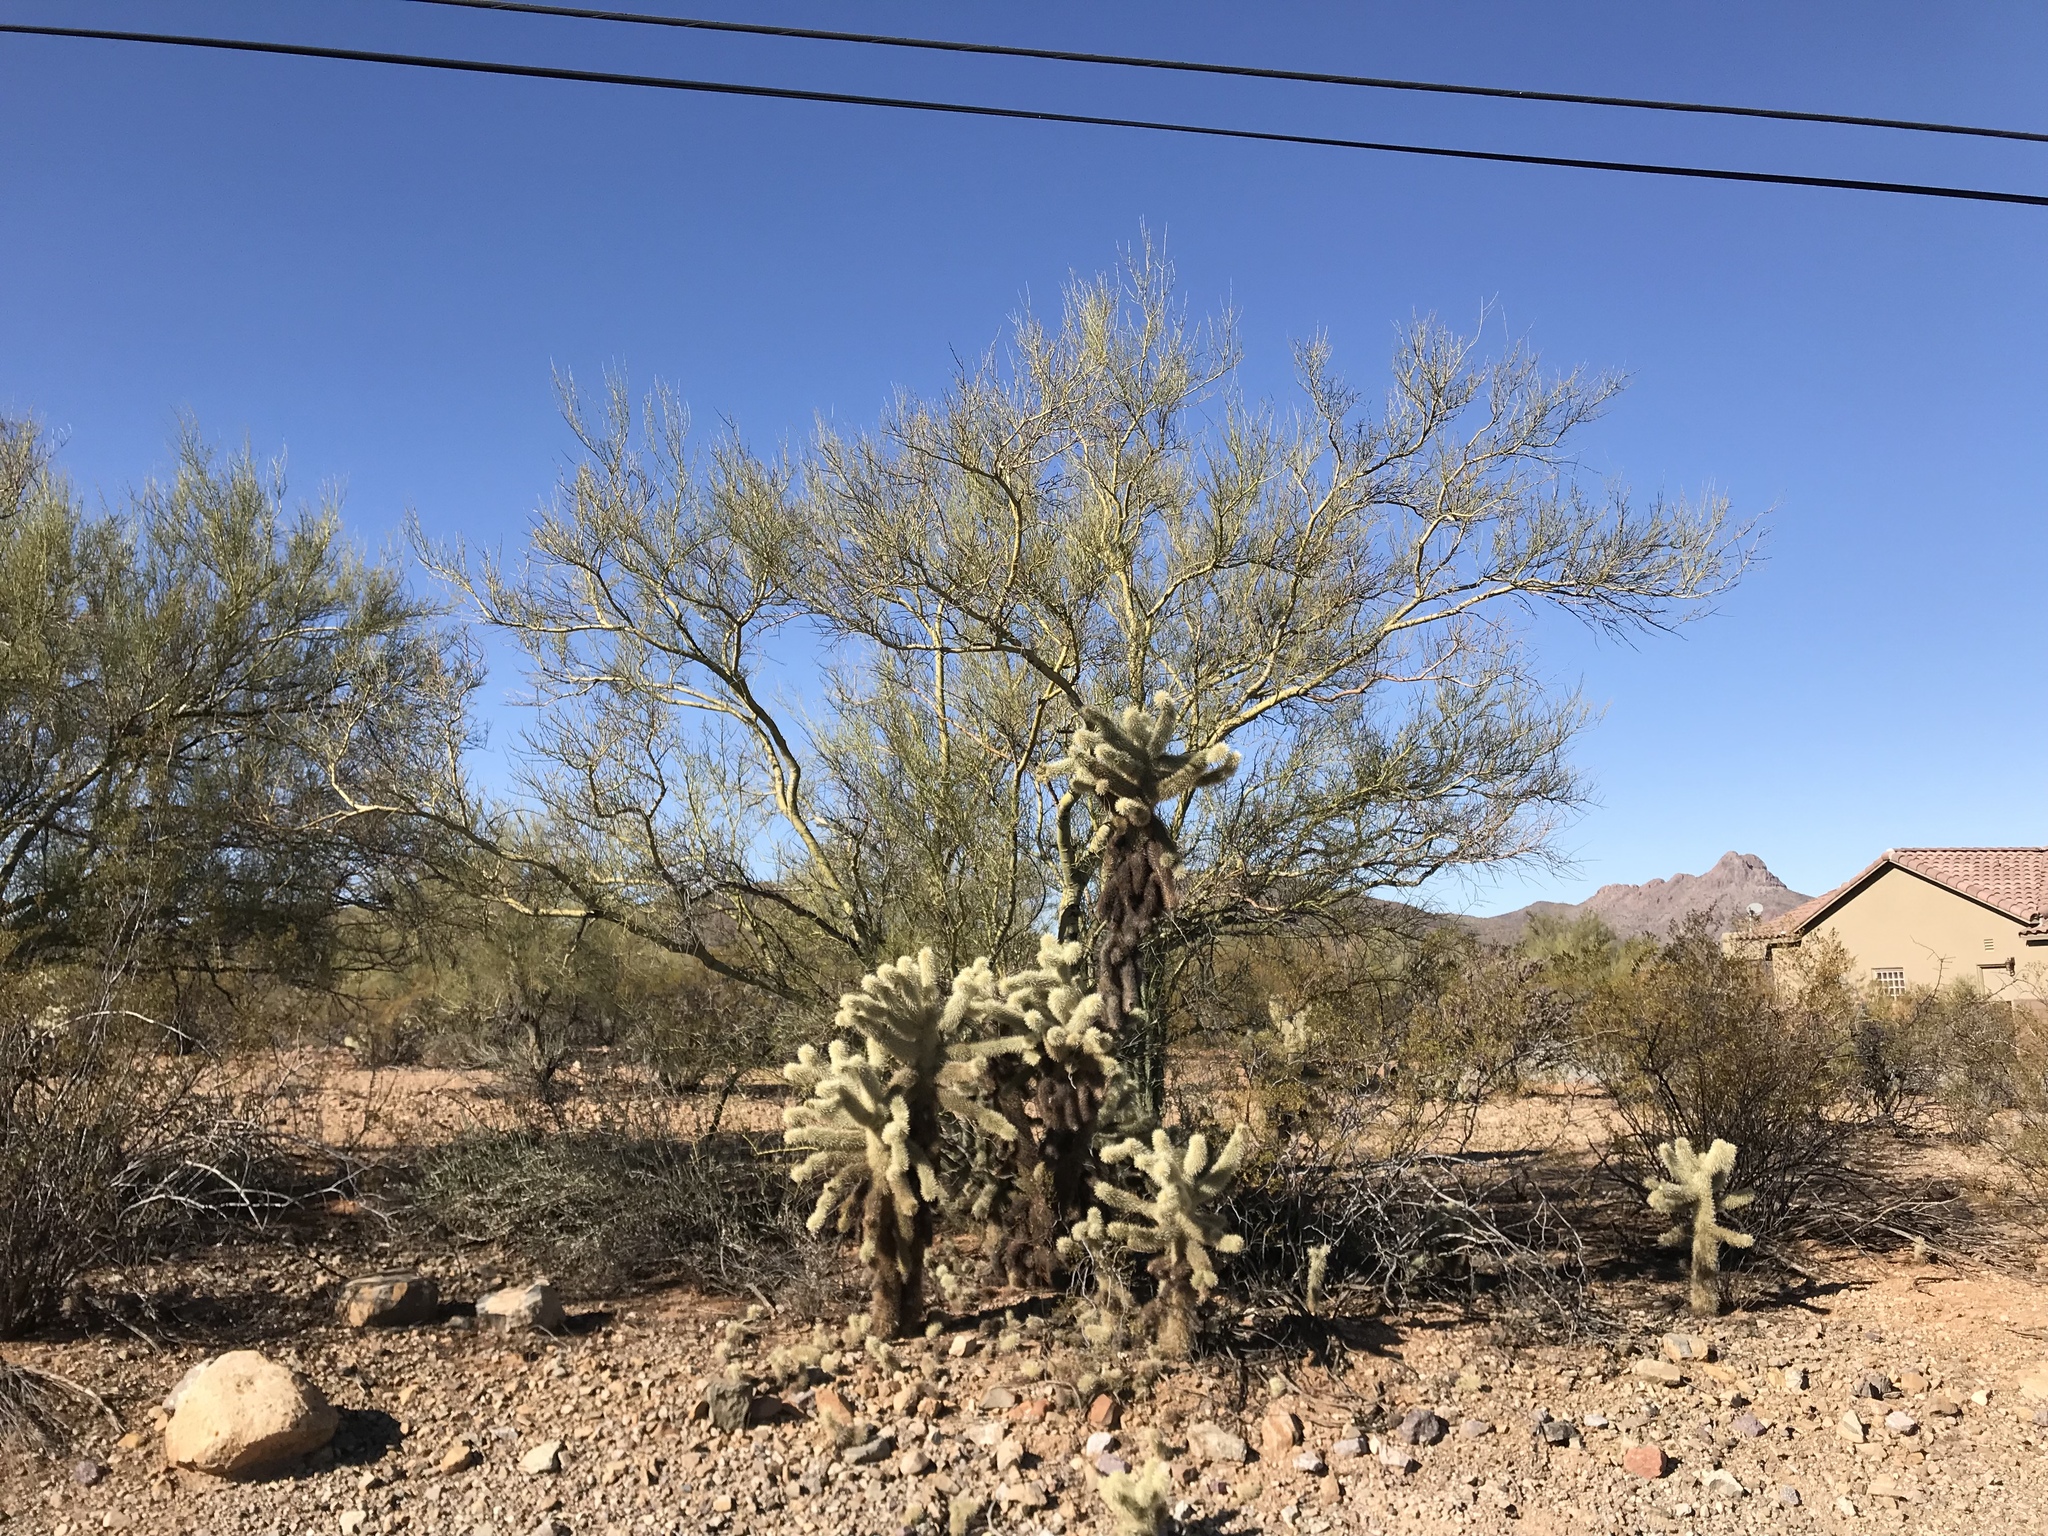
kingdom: Plantae
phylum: Tracheophyta
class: Magnoliopsida
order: Caryophyllales
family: Cactaceae
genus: Cylindropuntia
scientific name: Cylindropuntia fosbergii
